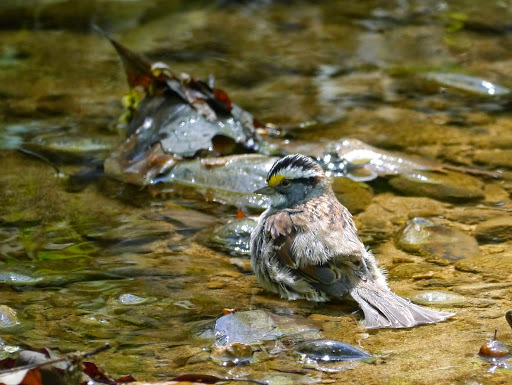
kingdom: Animalia
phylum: Chordata
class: Aves
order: Passeriformes
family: Passerellidae
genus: Zonotrichia
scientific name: Zonotrichia albicollis
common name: White-throated sparrow
